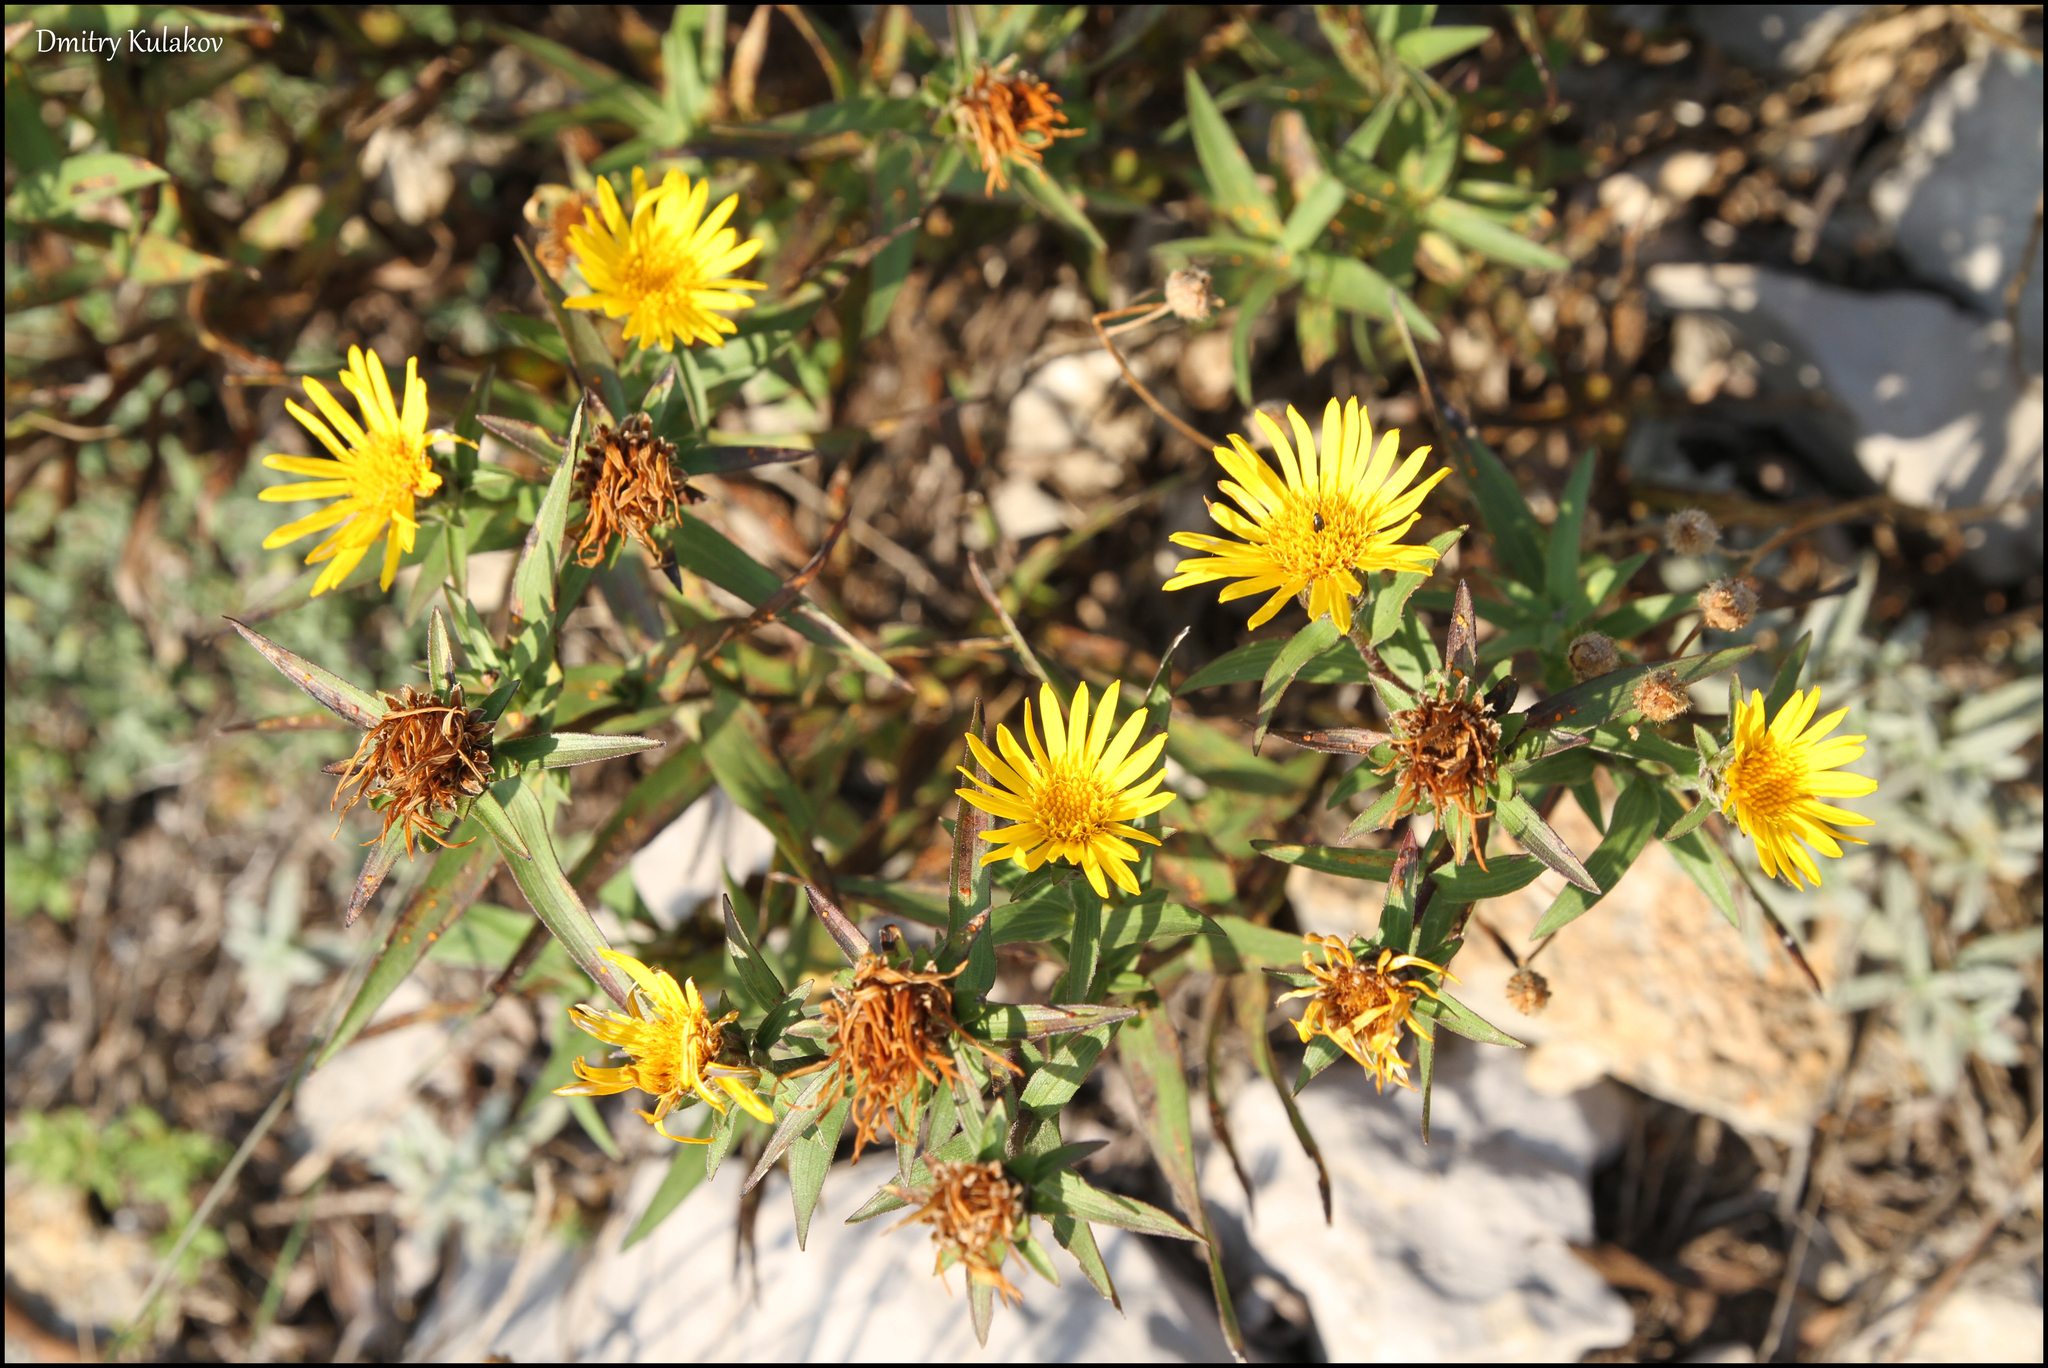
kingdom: Plantae
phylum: Tracheophyta
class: Magnoliopsida
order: Asterales
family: Asteraceae
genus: Pentanema
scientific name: Pentanema ensifolium
